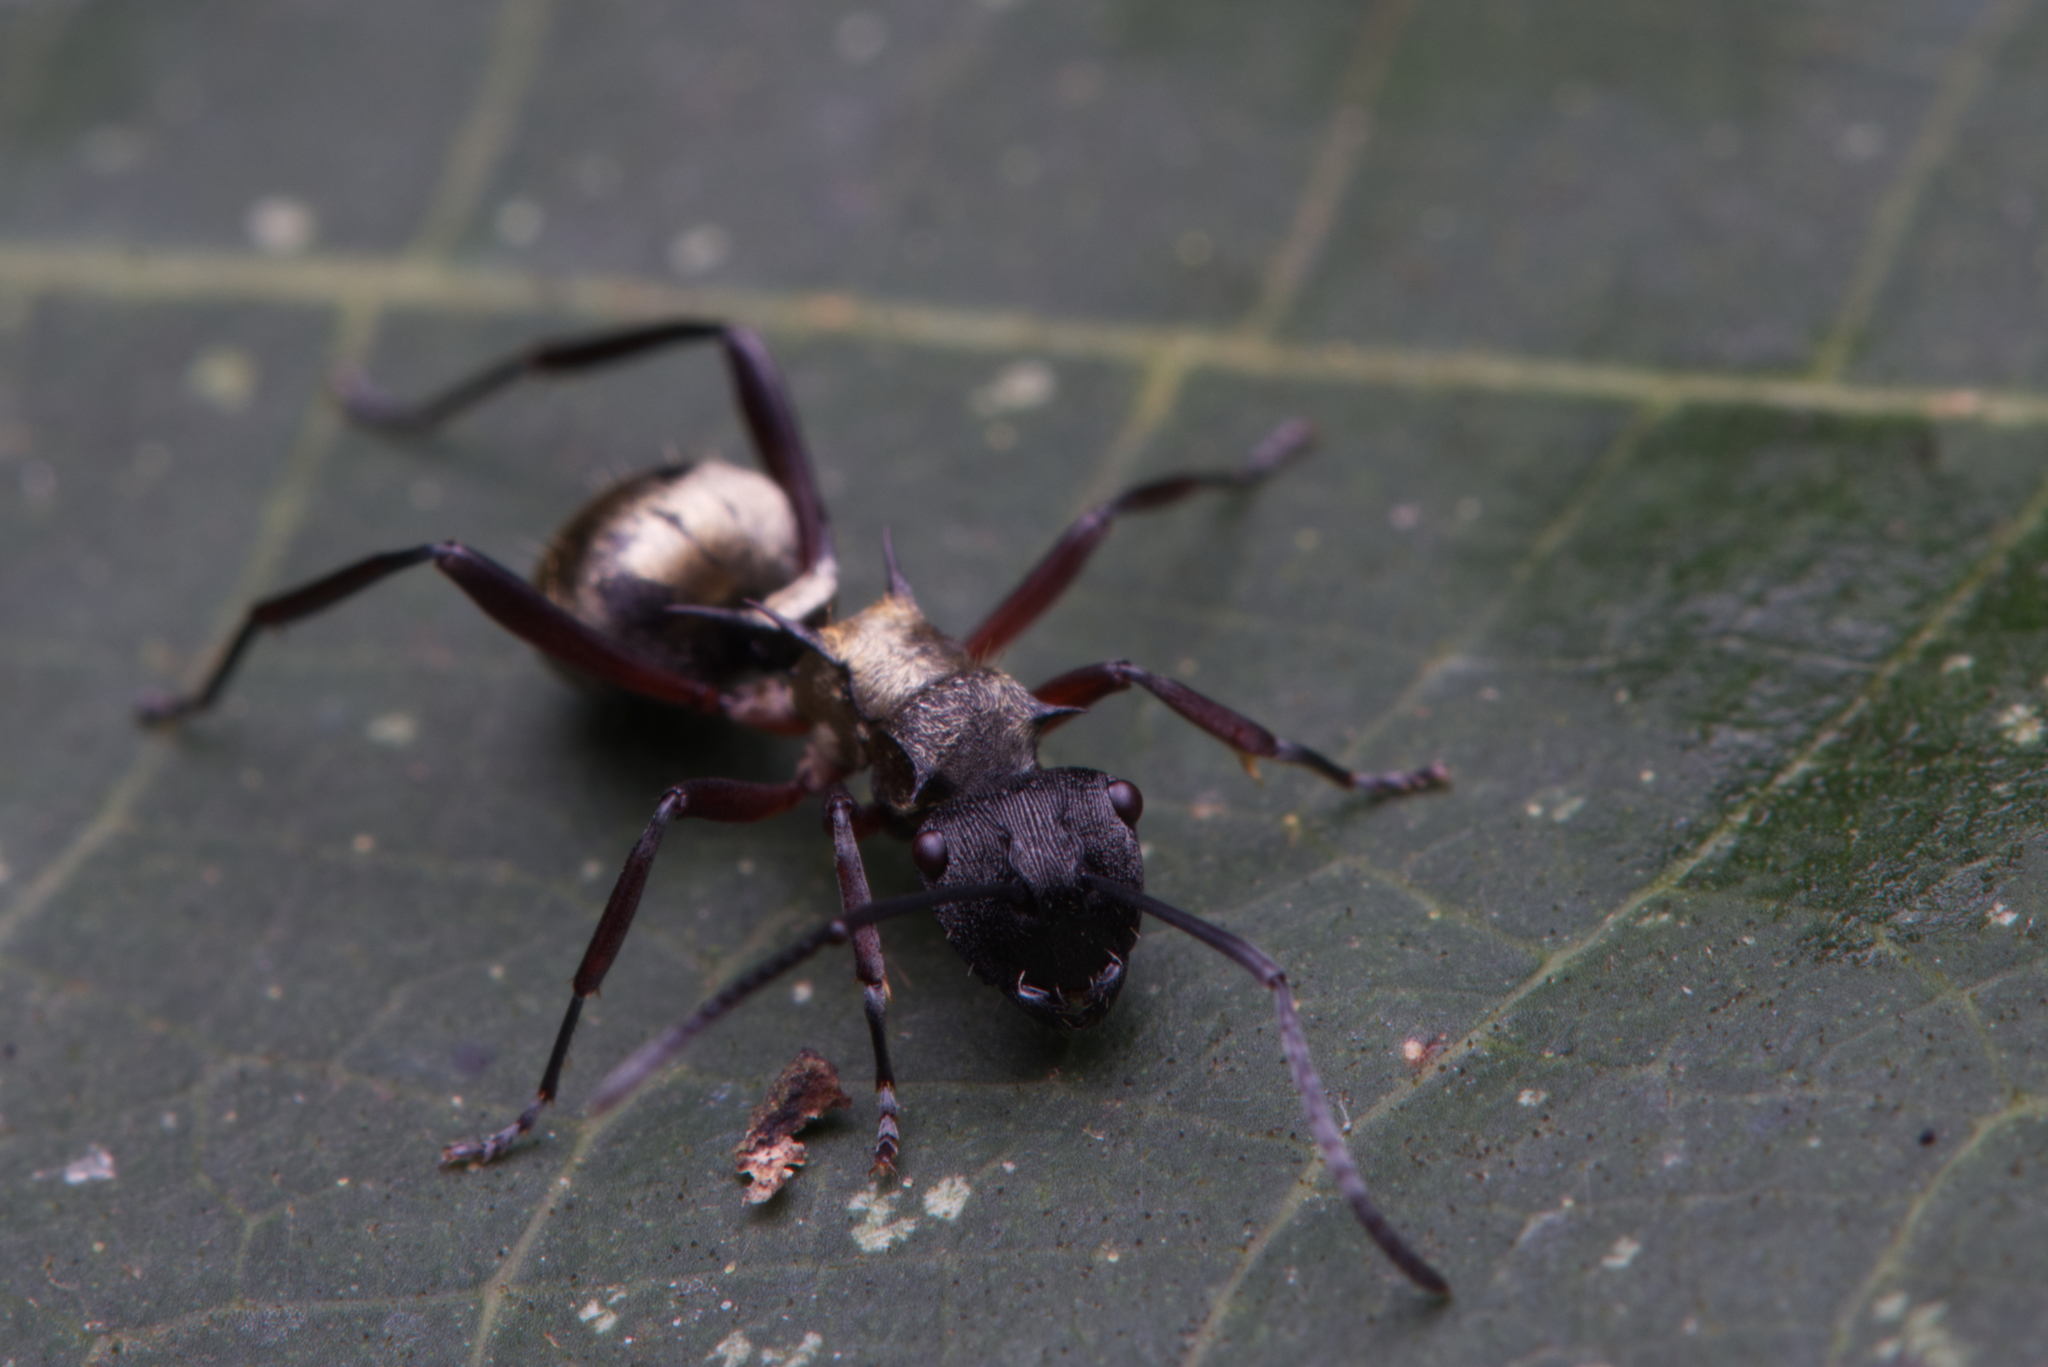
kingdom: Animalia
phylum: Arthropoda
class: Insecta
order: Hymenoptera
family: Formicidae
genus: Polyrhachis
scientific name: Polyrhachis rufifemur
